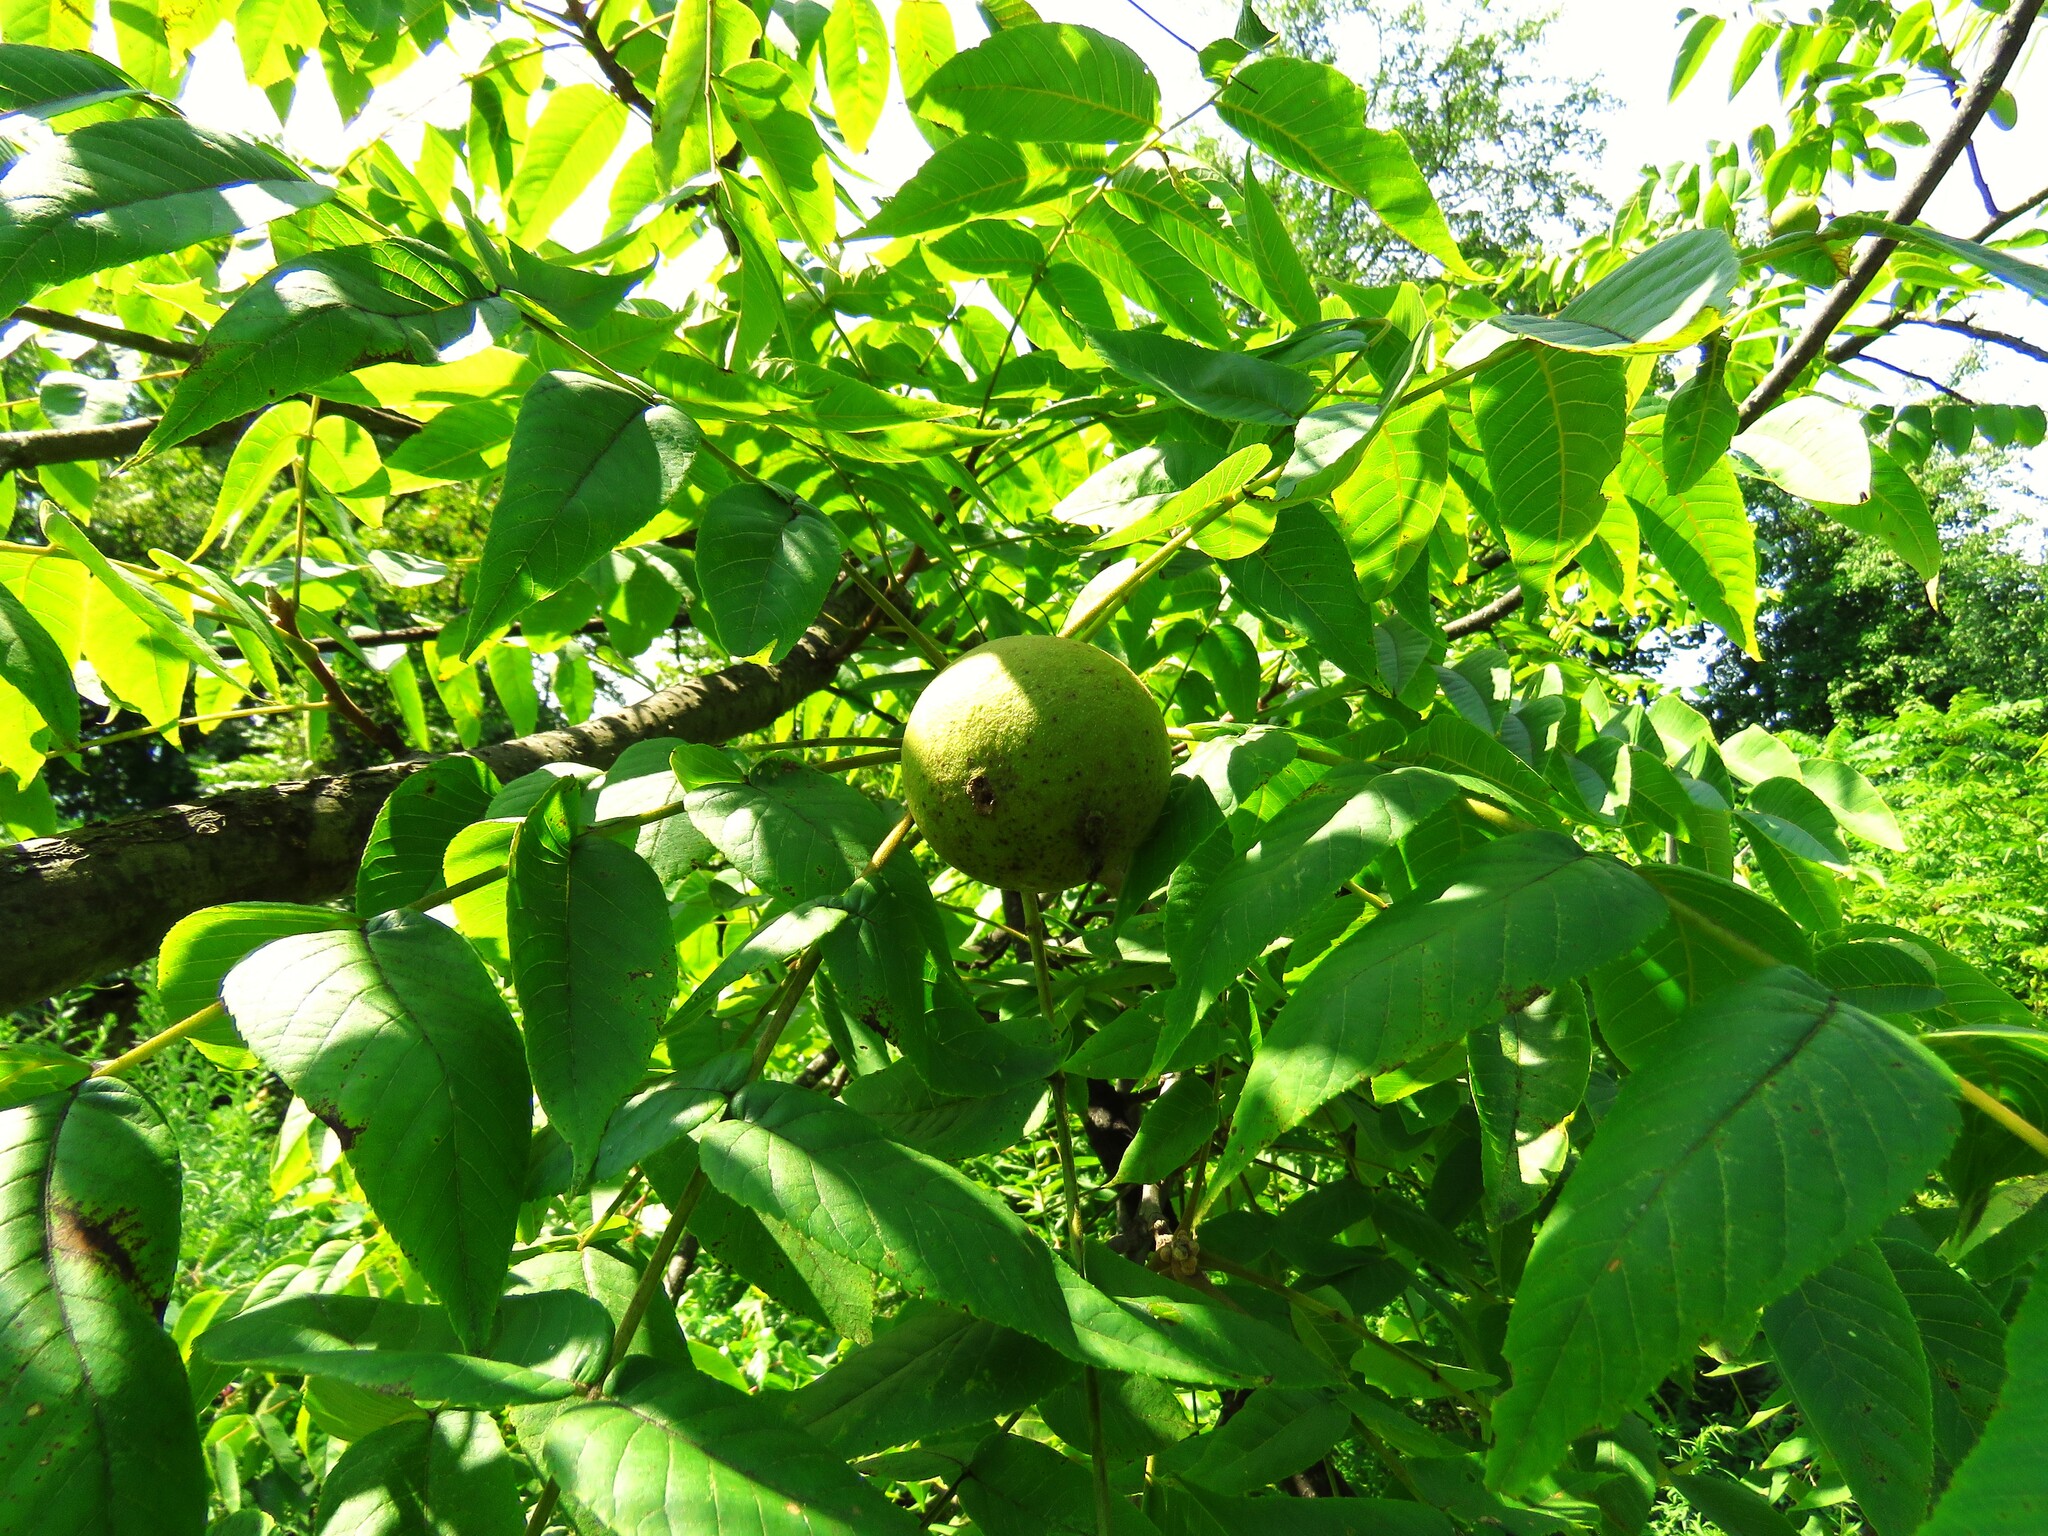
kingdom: Plantae
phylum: Tracheophyta
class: Magnoliopsida
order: Fagales
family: Juglandaceae
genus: Juglans
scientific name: Juglans nigra
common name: Black walnut
